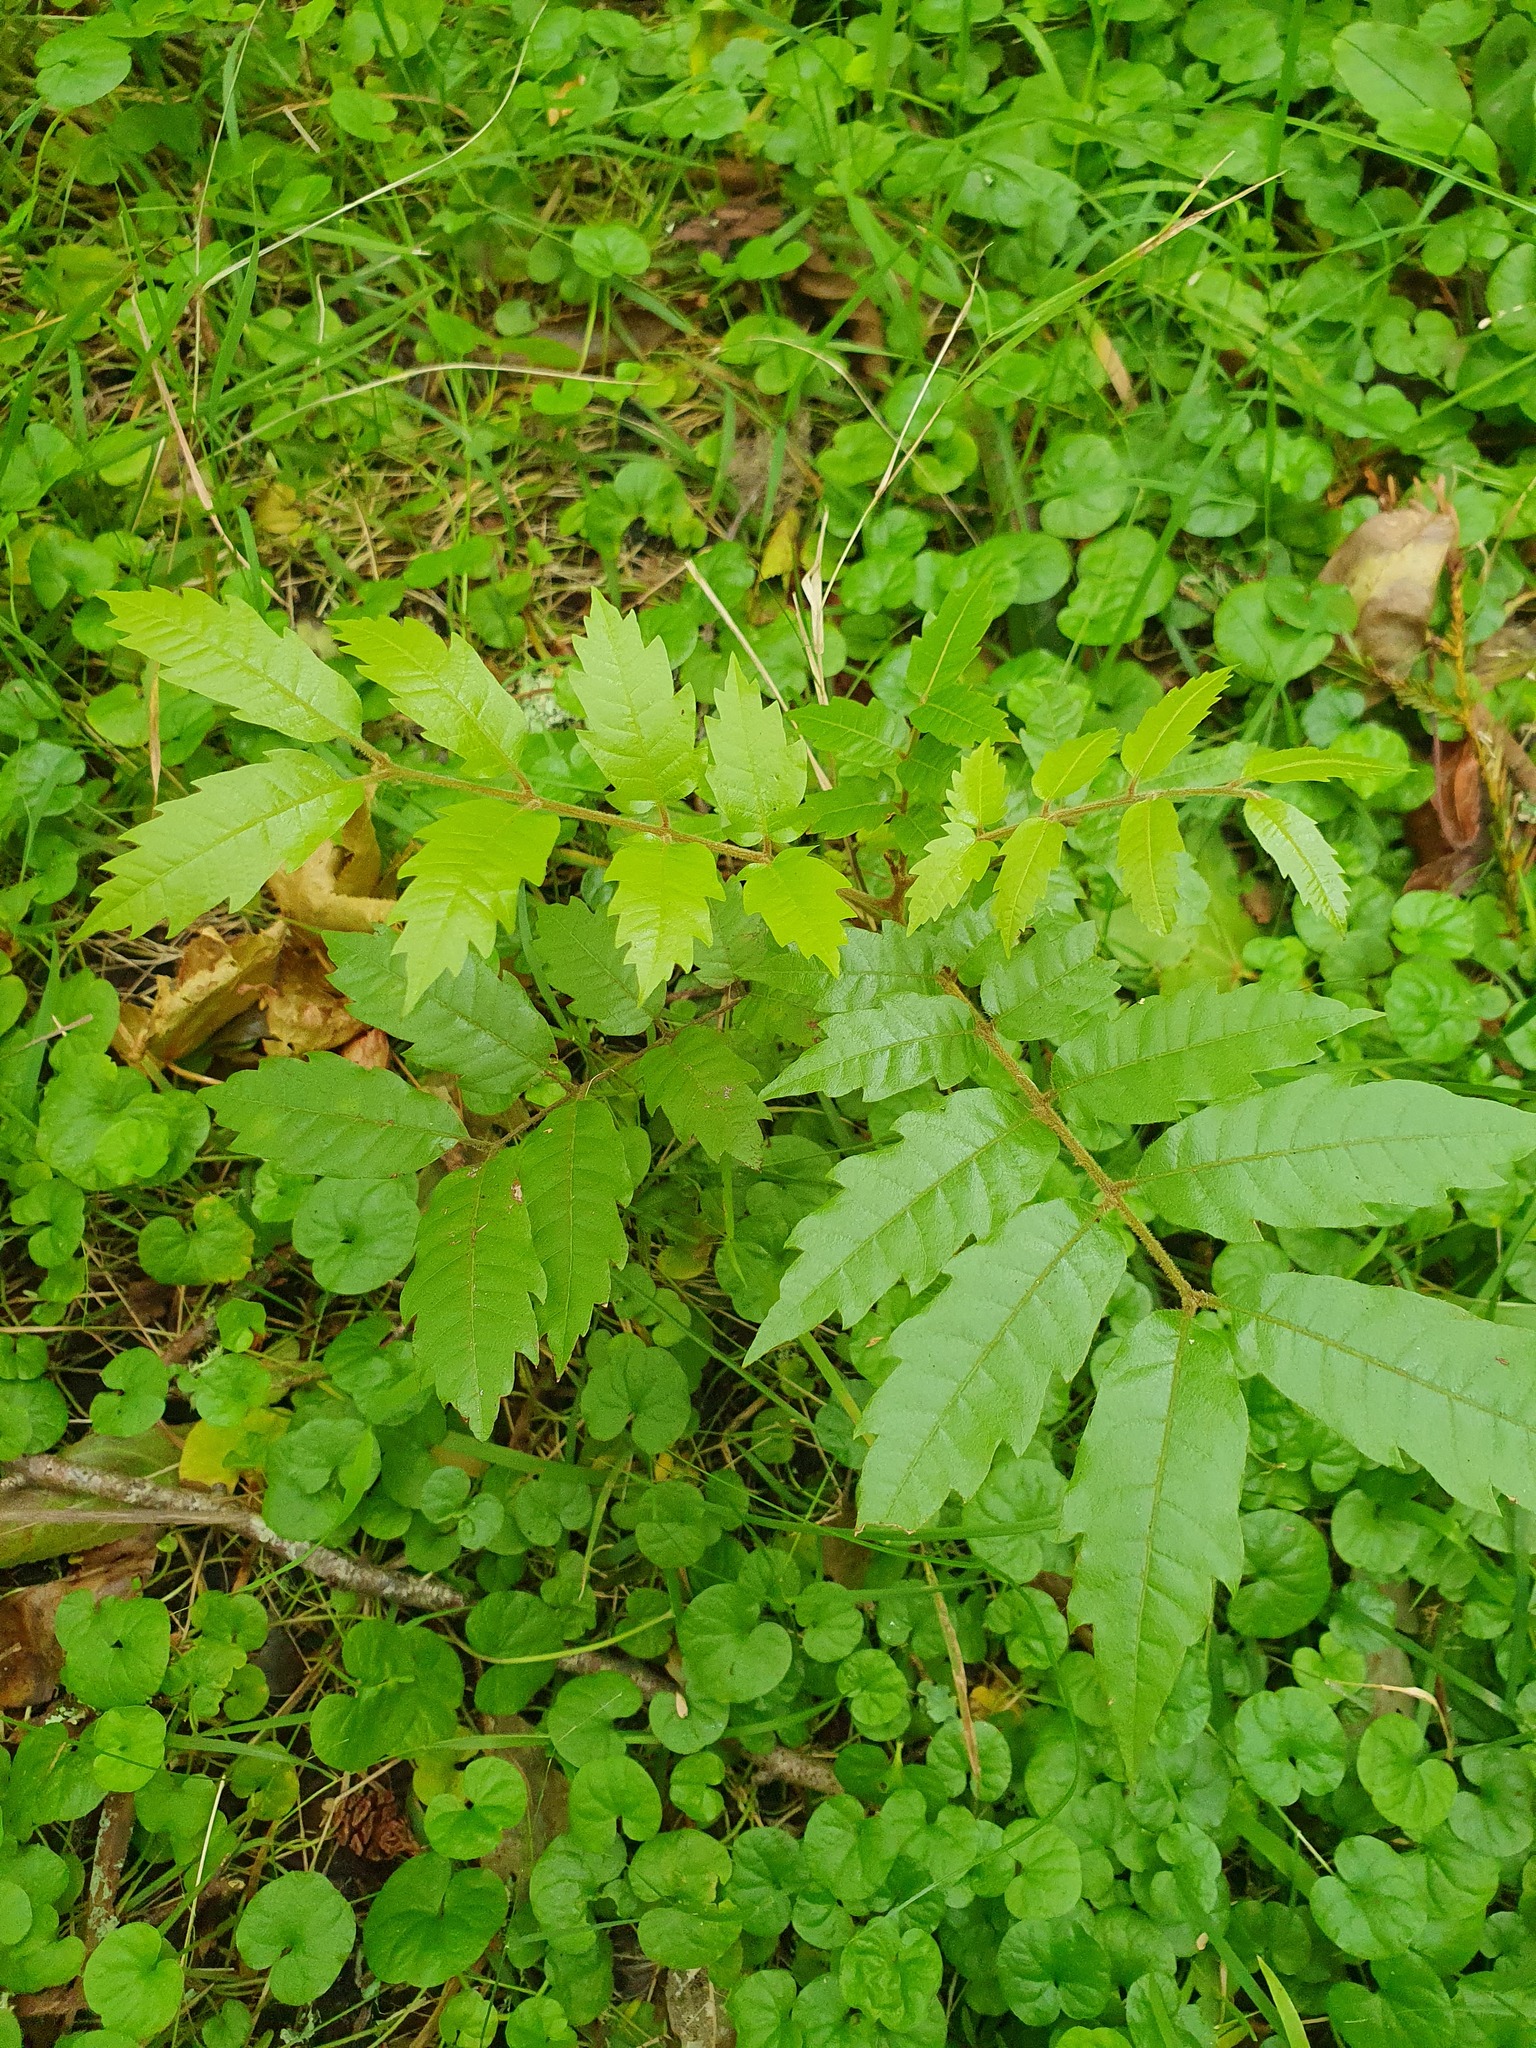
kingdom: Plantae
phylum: Tracheophyta
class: Magnoliopsida
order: Sapindales
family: Sapindaceae
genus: Alectryon
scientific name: Alectryon excelsus
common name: Three kings titoki
